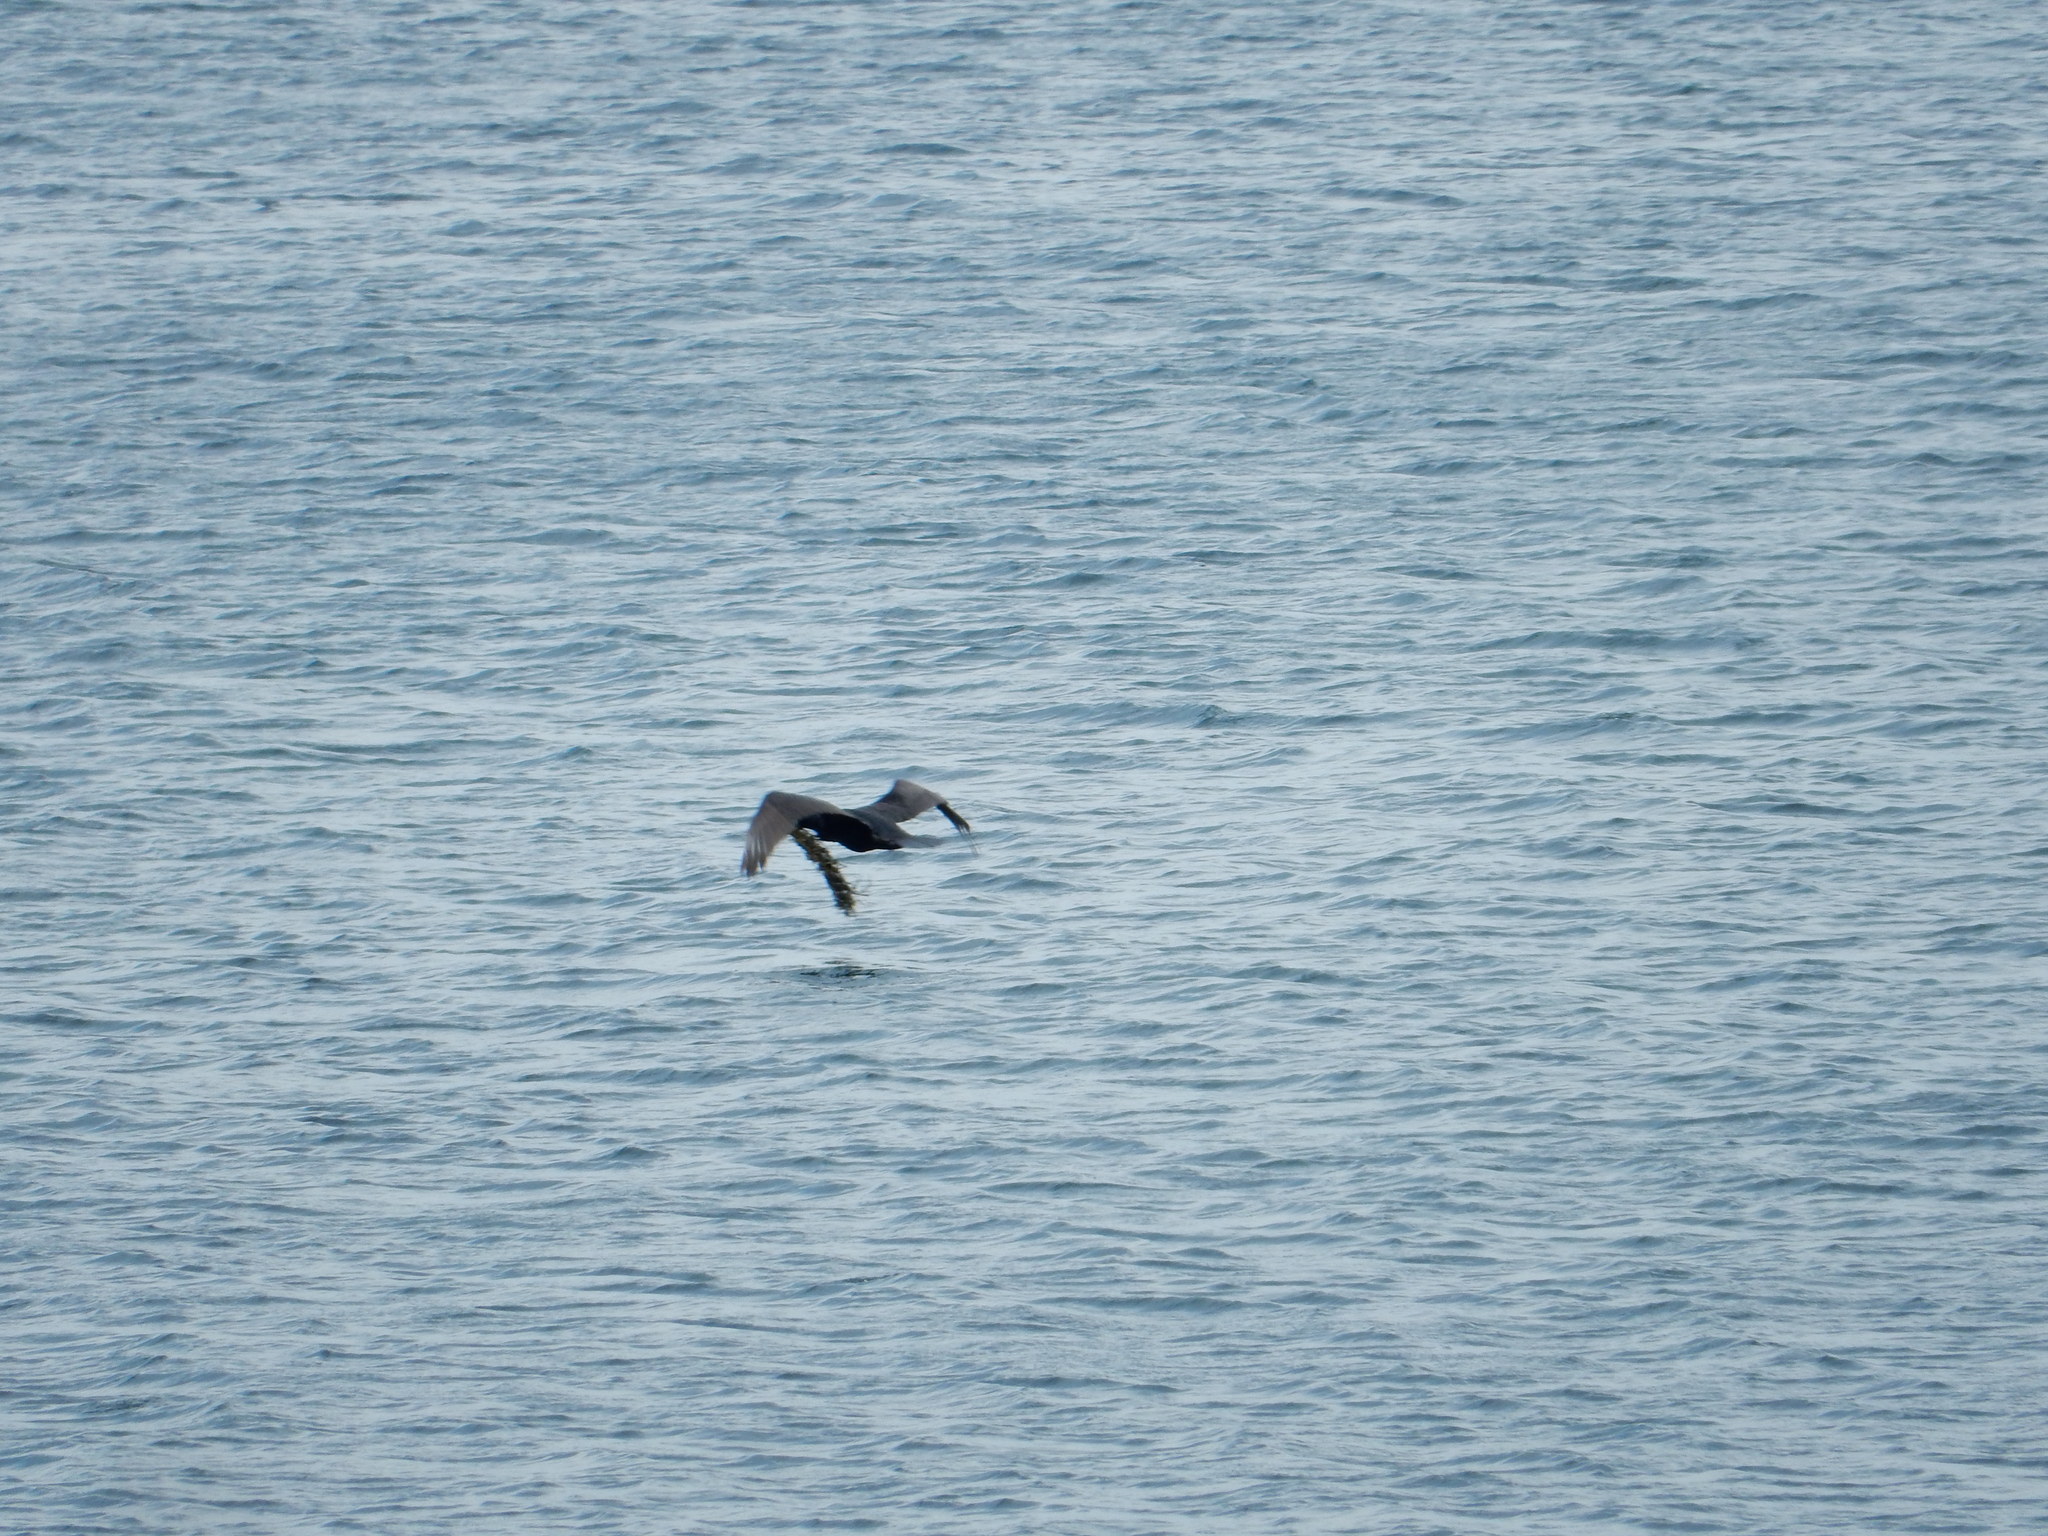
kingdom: Animalia
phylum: Chordata
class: Aves
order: Suliformes
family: Phalacrocoracidae
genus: Phalacrocorax
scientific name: Phalacrocorax auritus
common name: Double-crested cormorant
